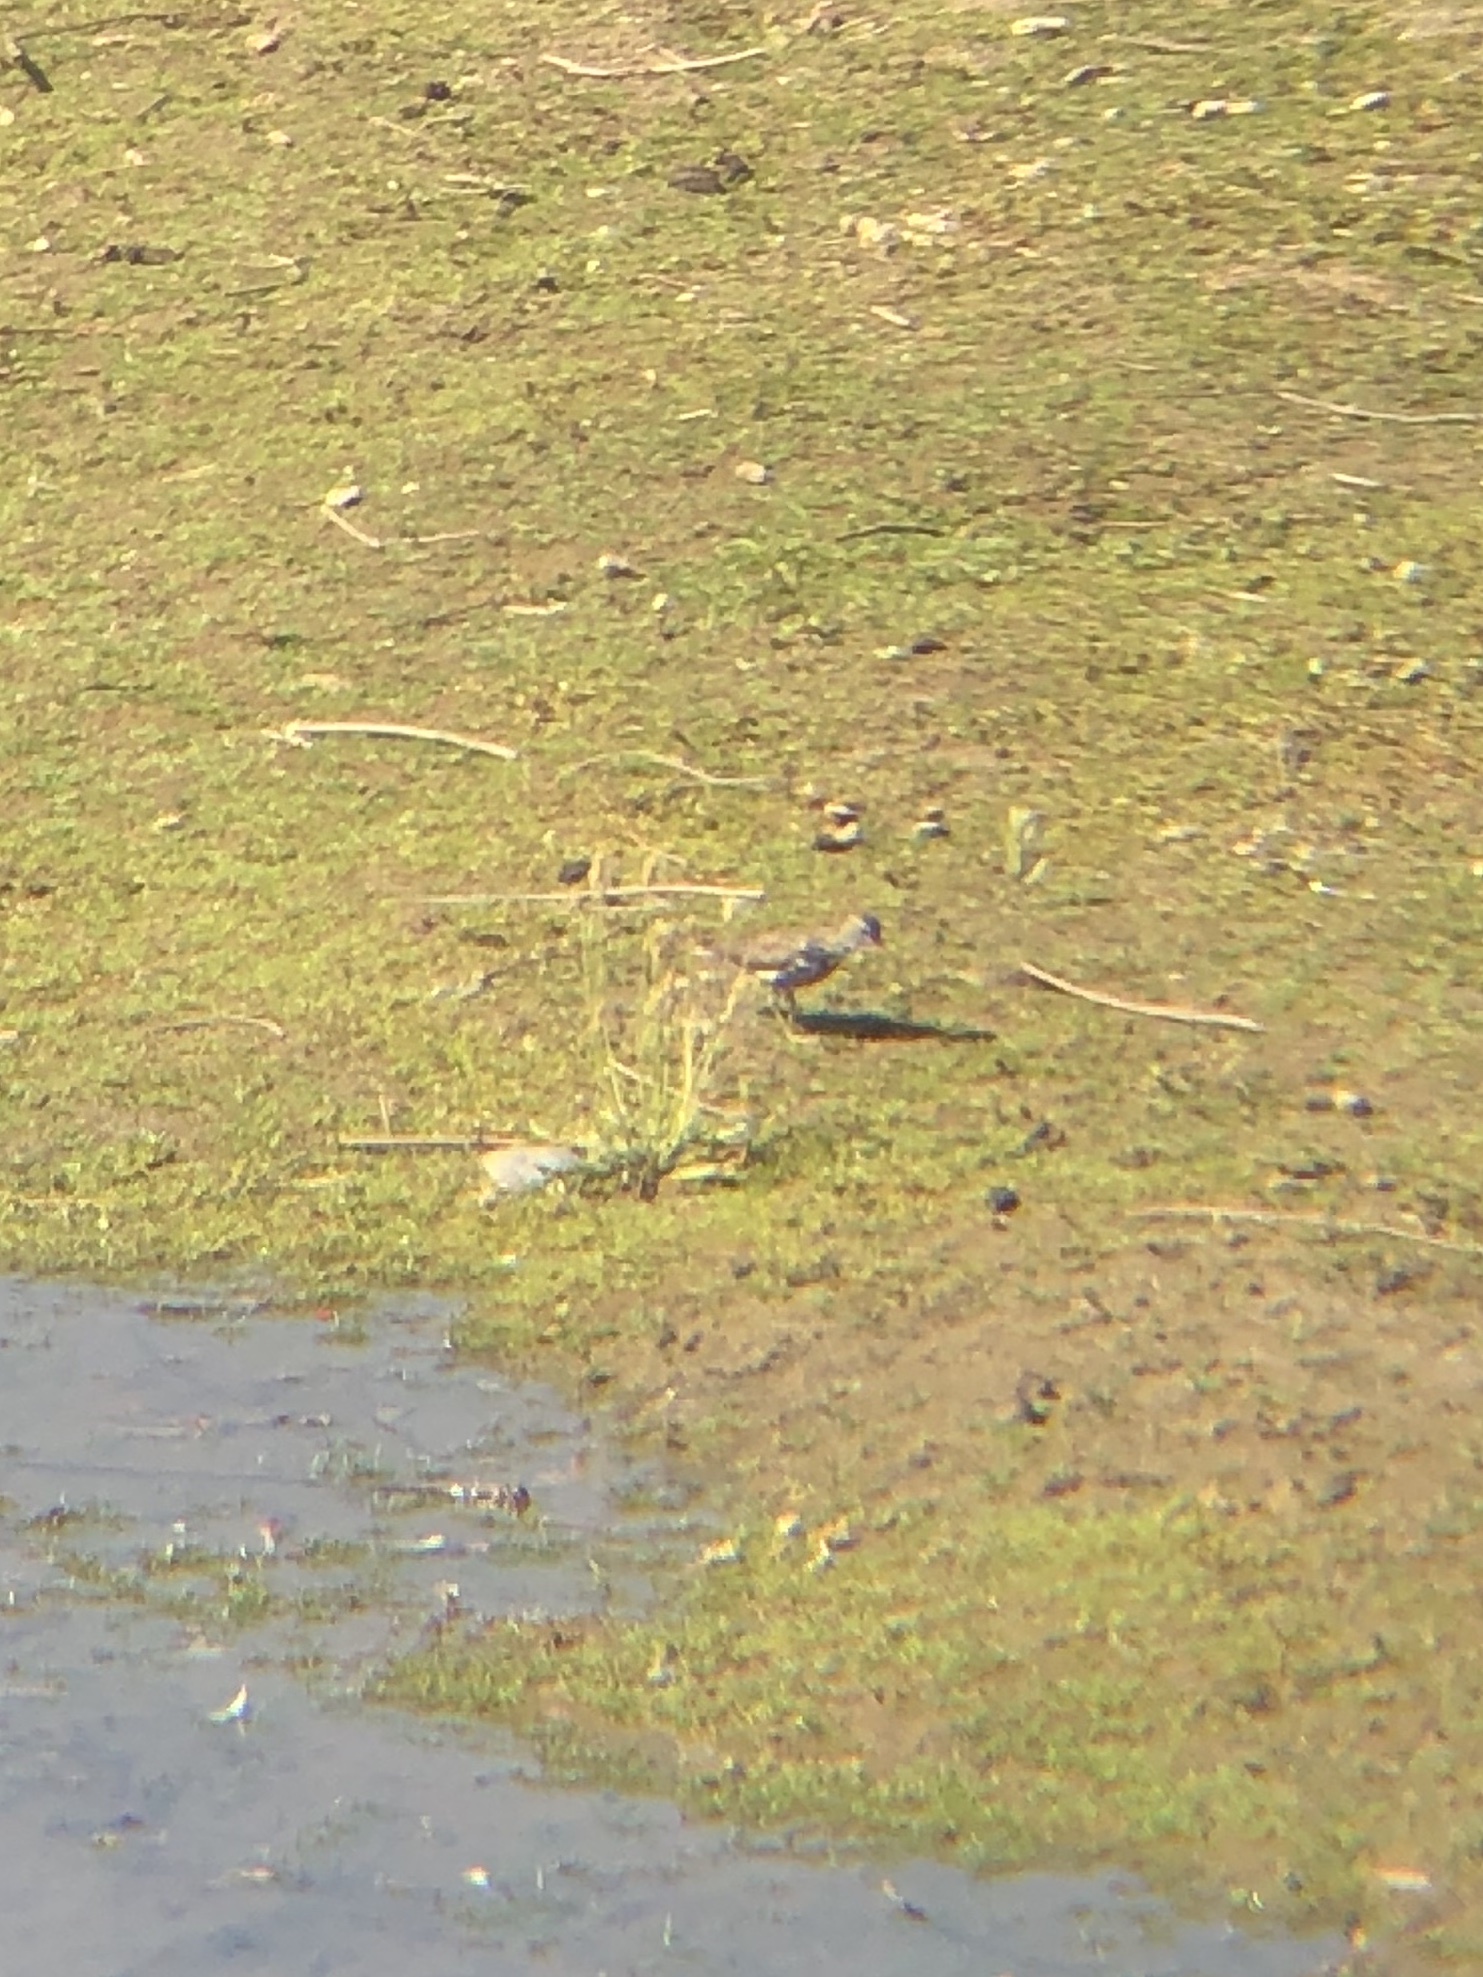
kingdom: Animalia
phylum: Chordata
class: Aves
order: Charadriiformes
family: Scolopacidae
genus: Actitis
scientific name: Actitis macularius
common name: Spotted sandpiper
